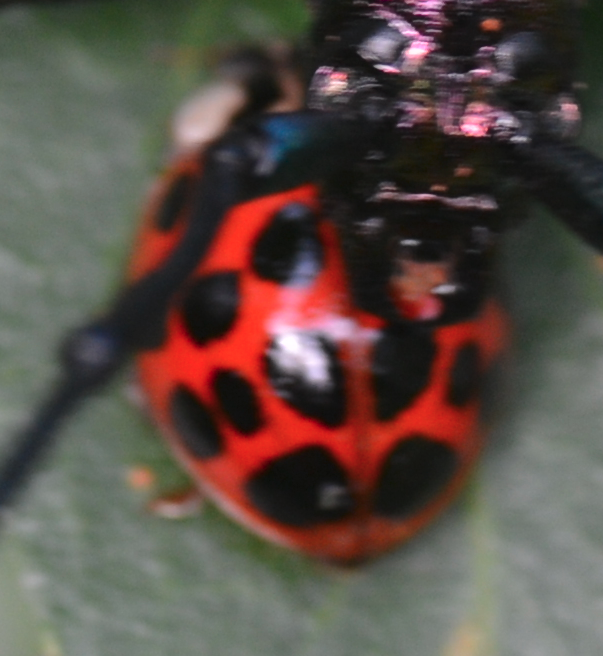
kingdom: Animalia
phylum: Arthropoda
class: Insecta
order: Coleoptera
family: Coccinellidae
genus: Harmonia
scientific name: Harmonia axyridis
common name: Harlequin ladybird
